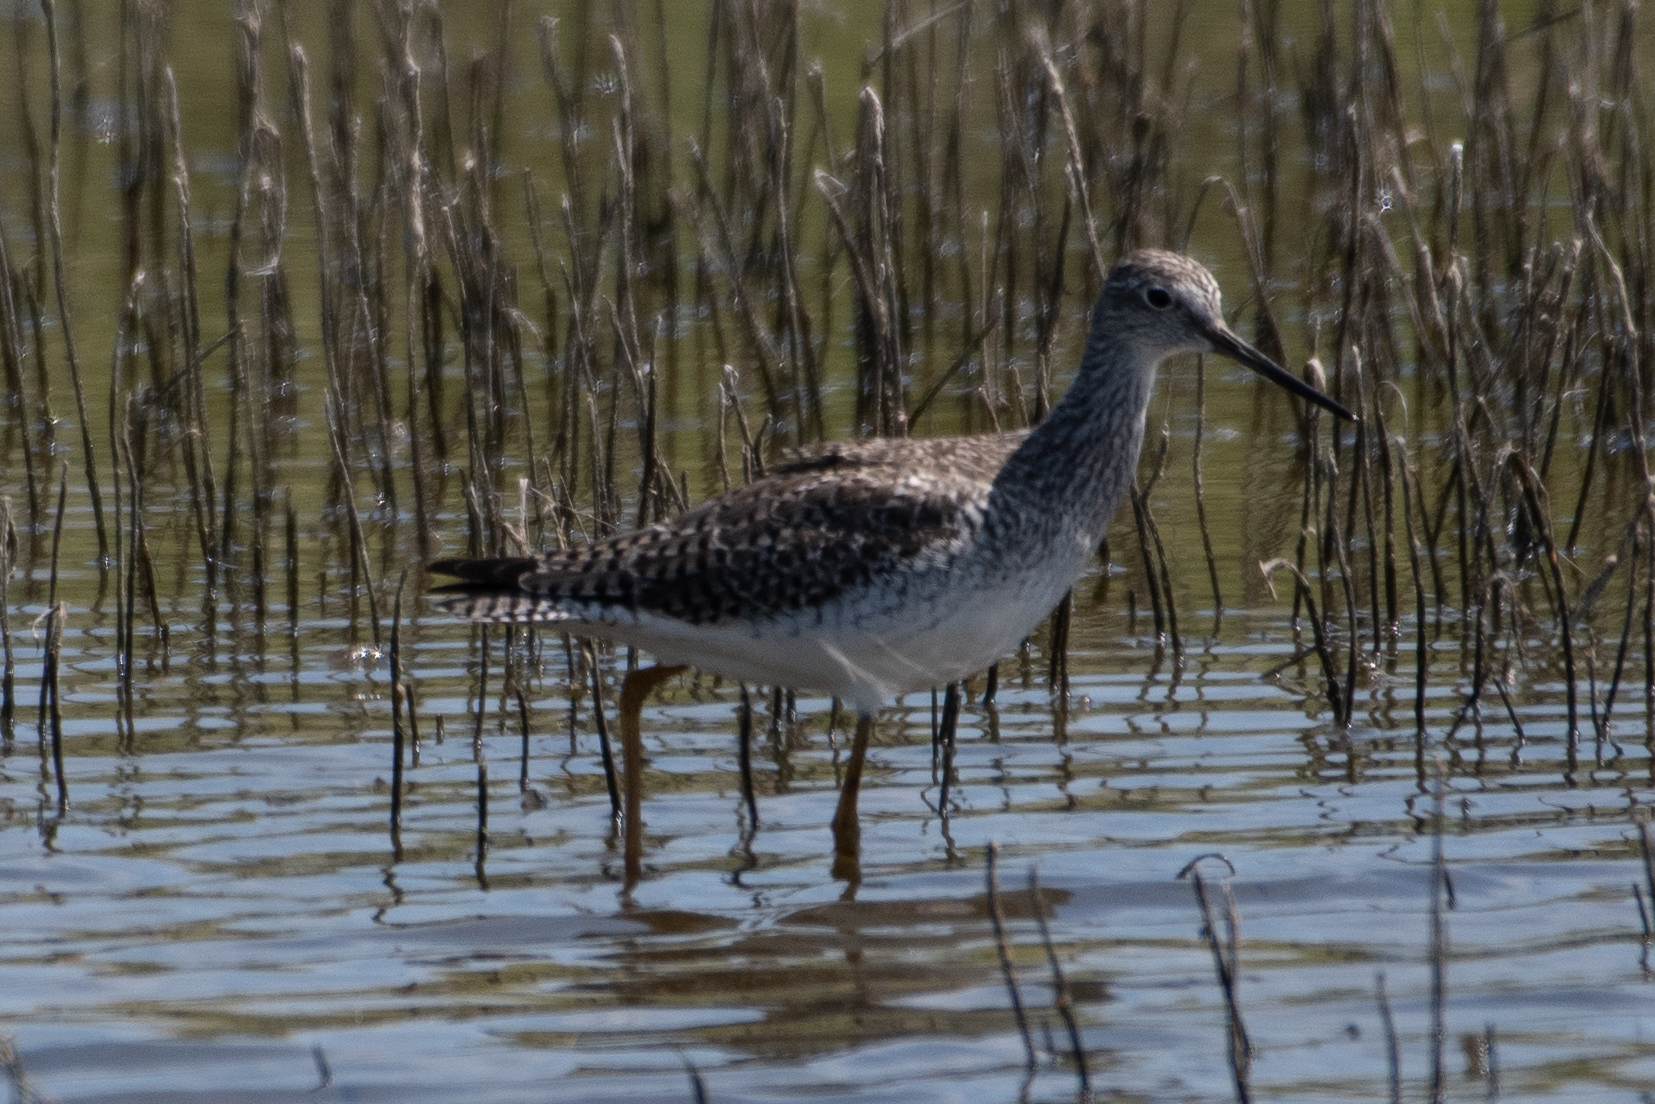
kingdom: Animalia
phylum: Chordata
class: Aves
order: Charadriiformes
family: Scolopacidae
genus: Tringa
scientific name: Tringa melanoleuca
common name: Greater yellowlegs
